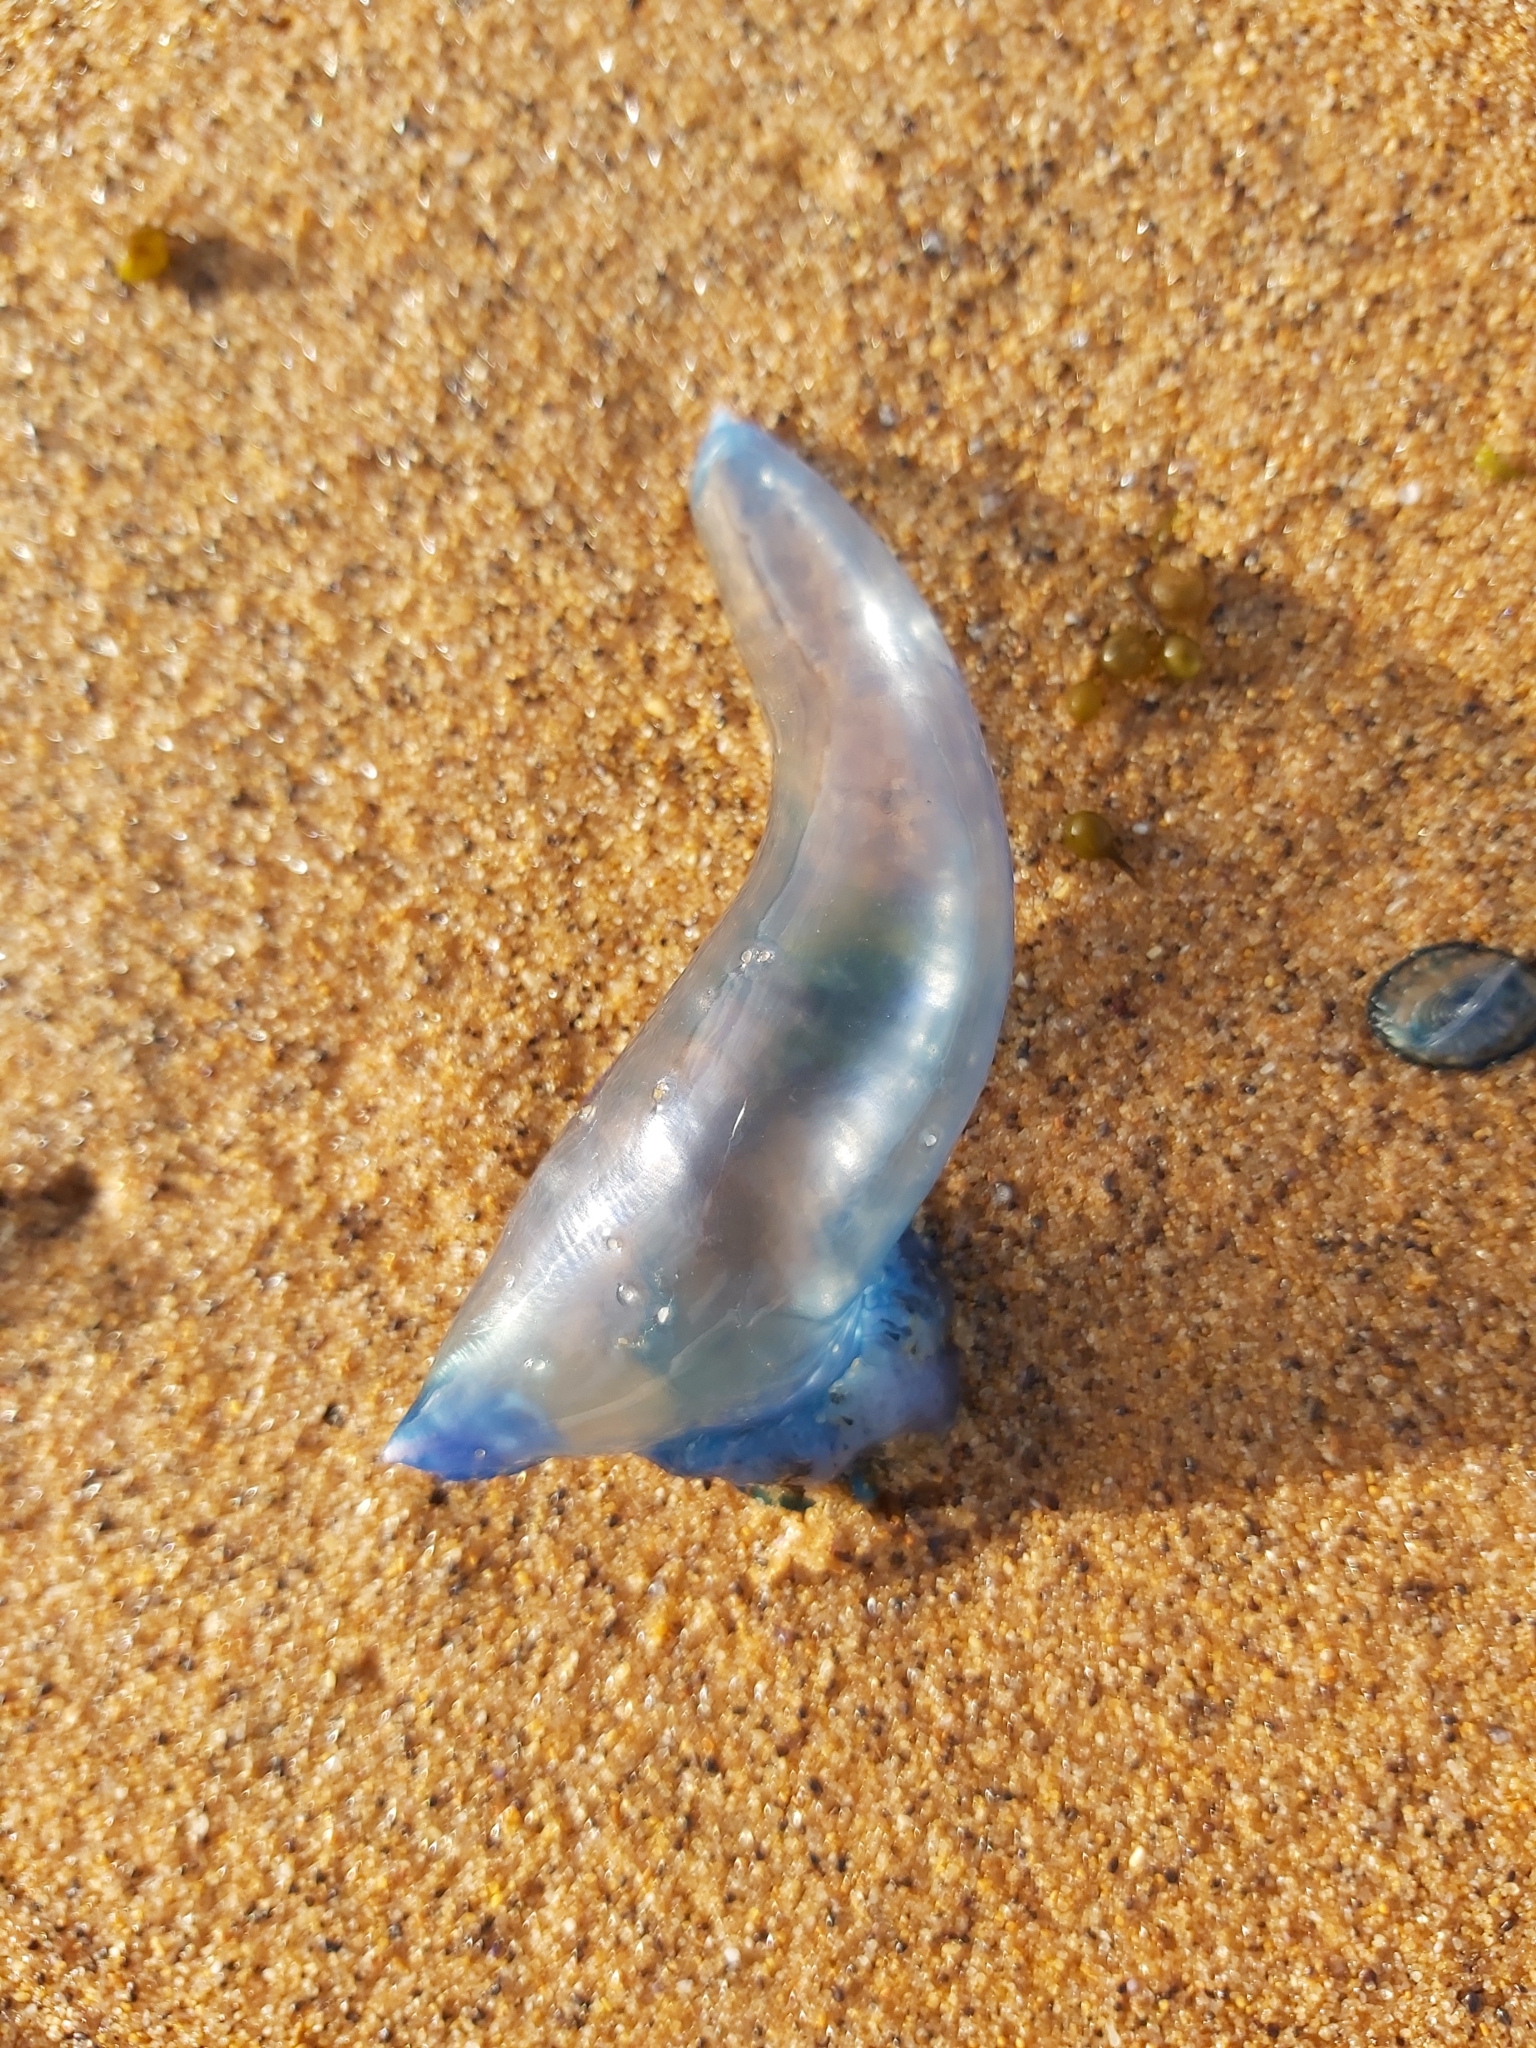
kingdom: Animalia
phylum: Cnidaria
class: Hydrozoa
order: Siphonophorae
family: Physaliidae
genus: Physalia
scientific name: Physalia physalis
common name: Portuguese man-of-war
